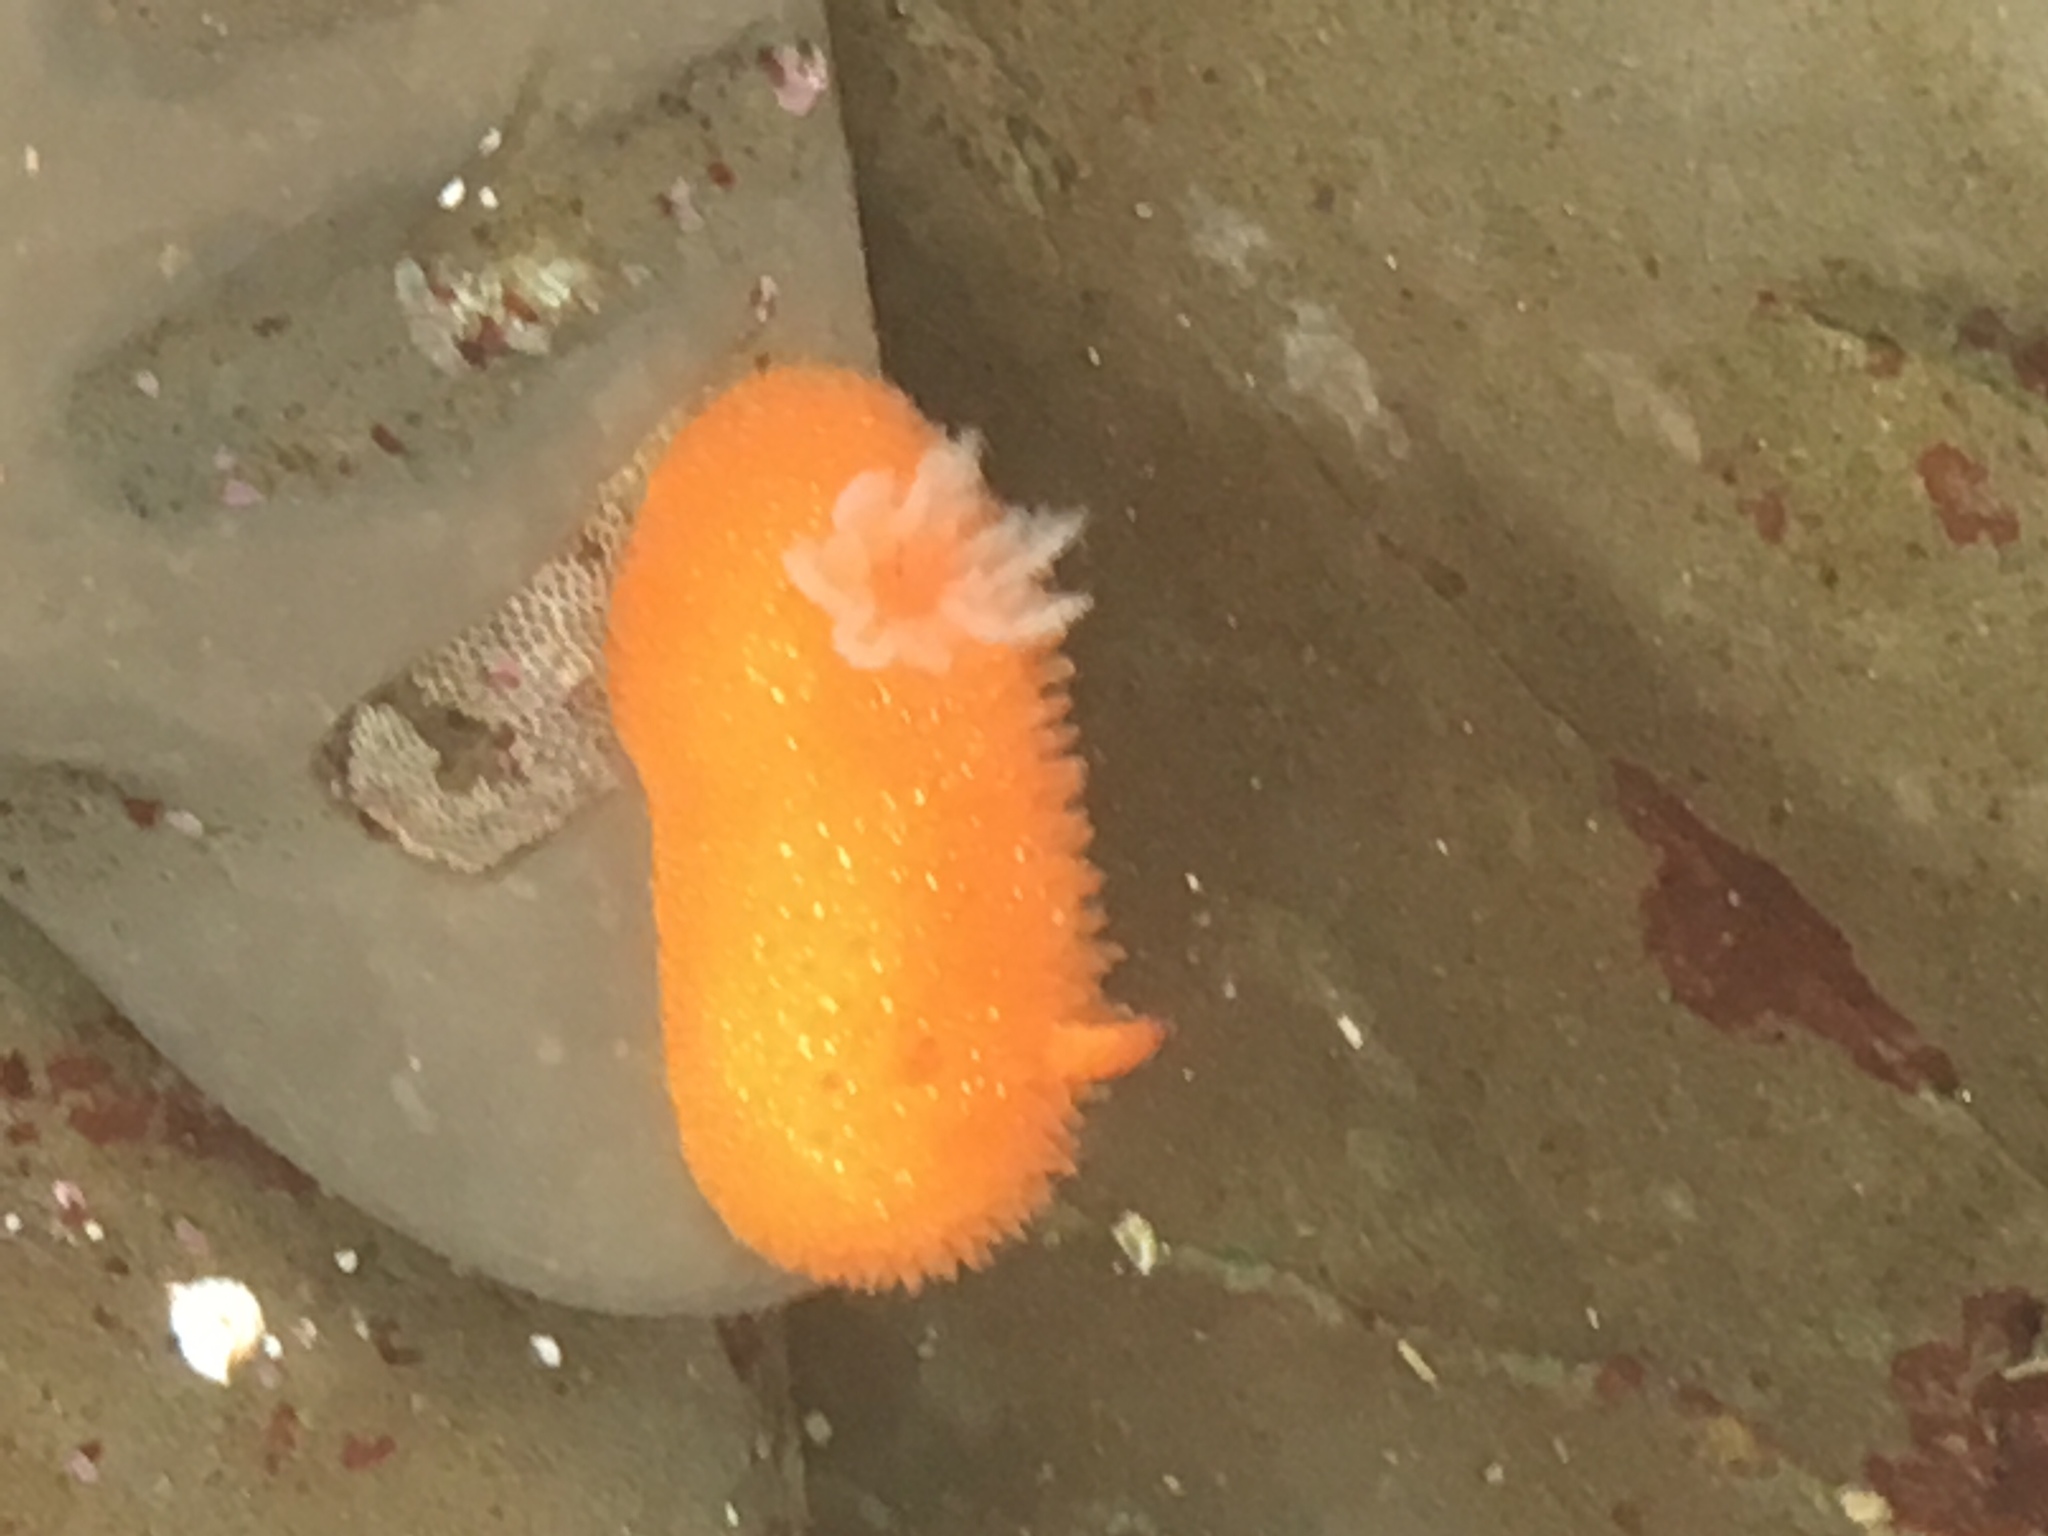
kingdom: Animalia
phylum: Mollusca
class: Gastropoda
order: Nudibranchia
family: Onchidorididae
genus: Acanthodoris
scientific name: Acanthodoris lutea
